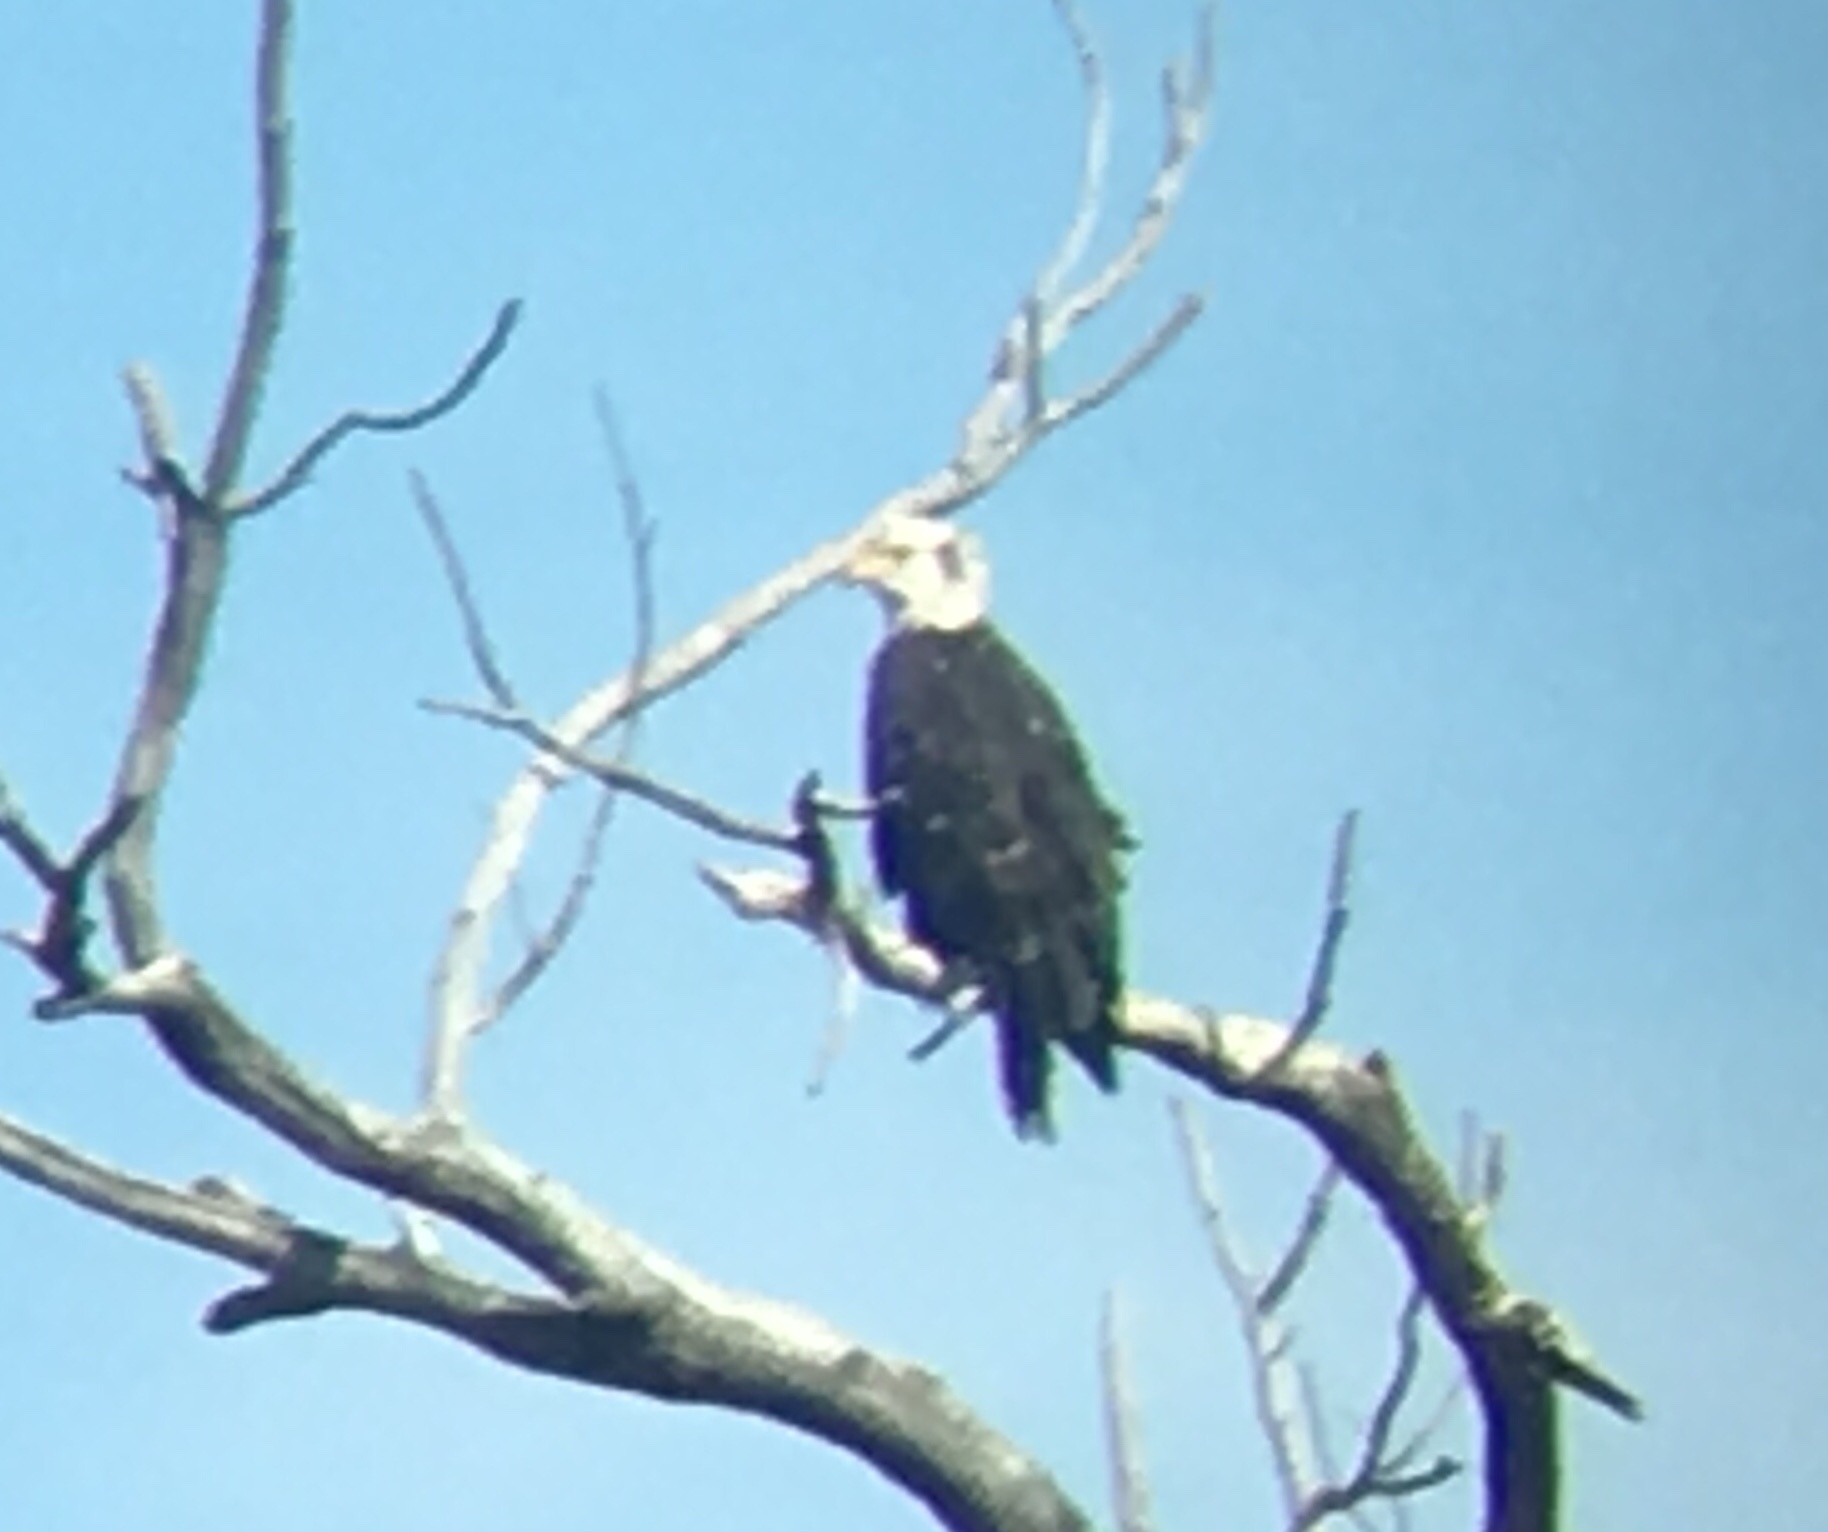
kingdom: Animalia
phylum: Chordata
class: Aves
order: Accipitriformes
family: Accipitridae
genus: Haliaeetus
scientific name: Haliaeetus leucocephalus
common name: Bald eagle
